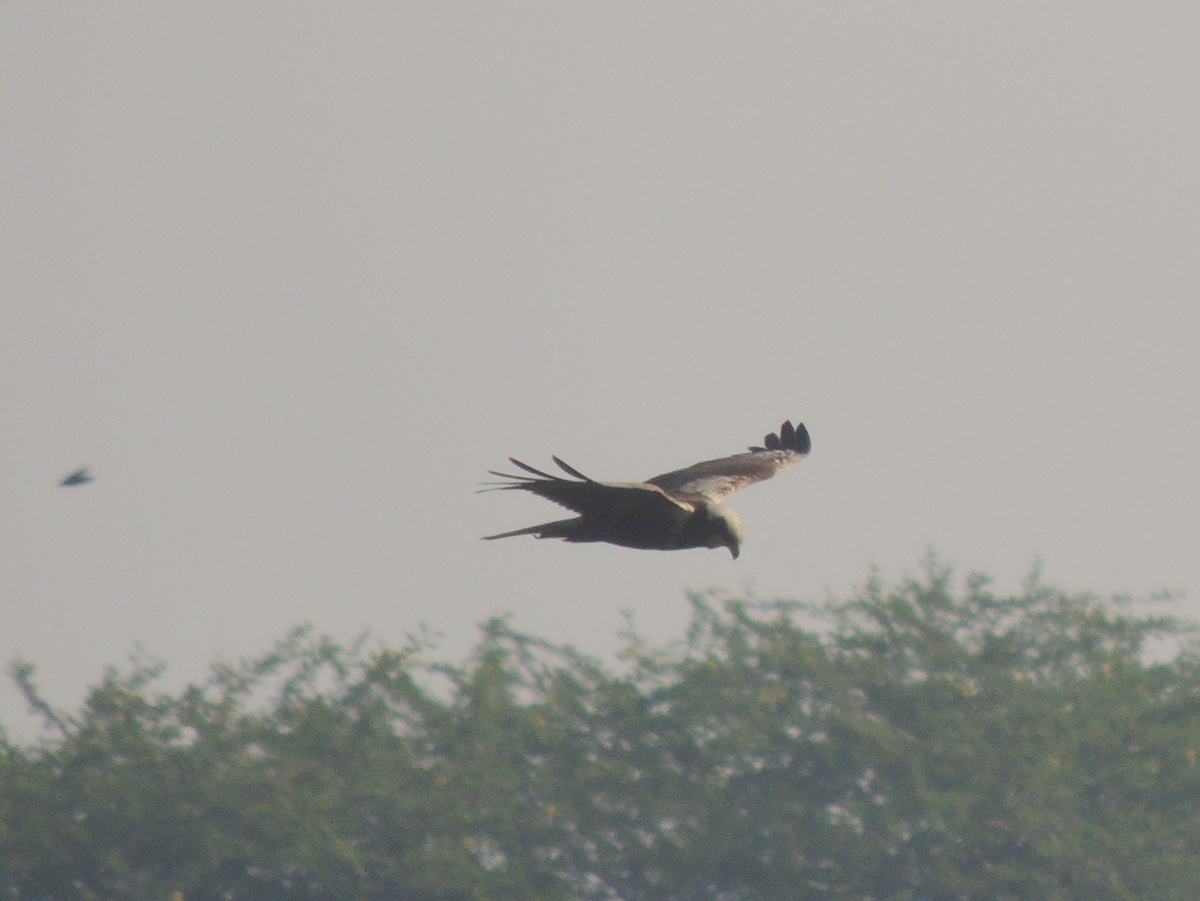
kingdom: Animalia
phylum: Chordata
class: Aves
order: Accipitriformes
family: Accipitridae
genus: Circus
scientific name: Circus aeruginosus
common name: Western marsh harrier
